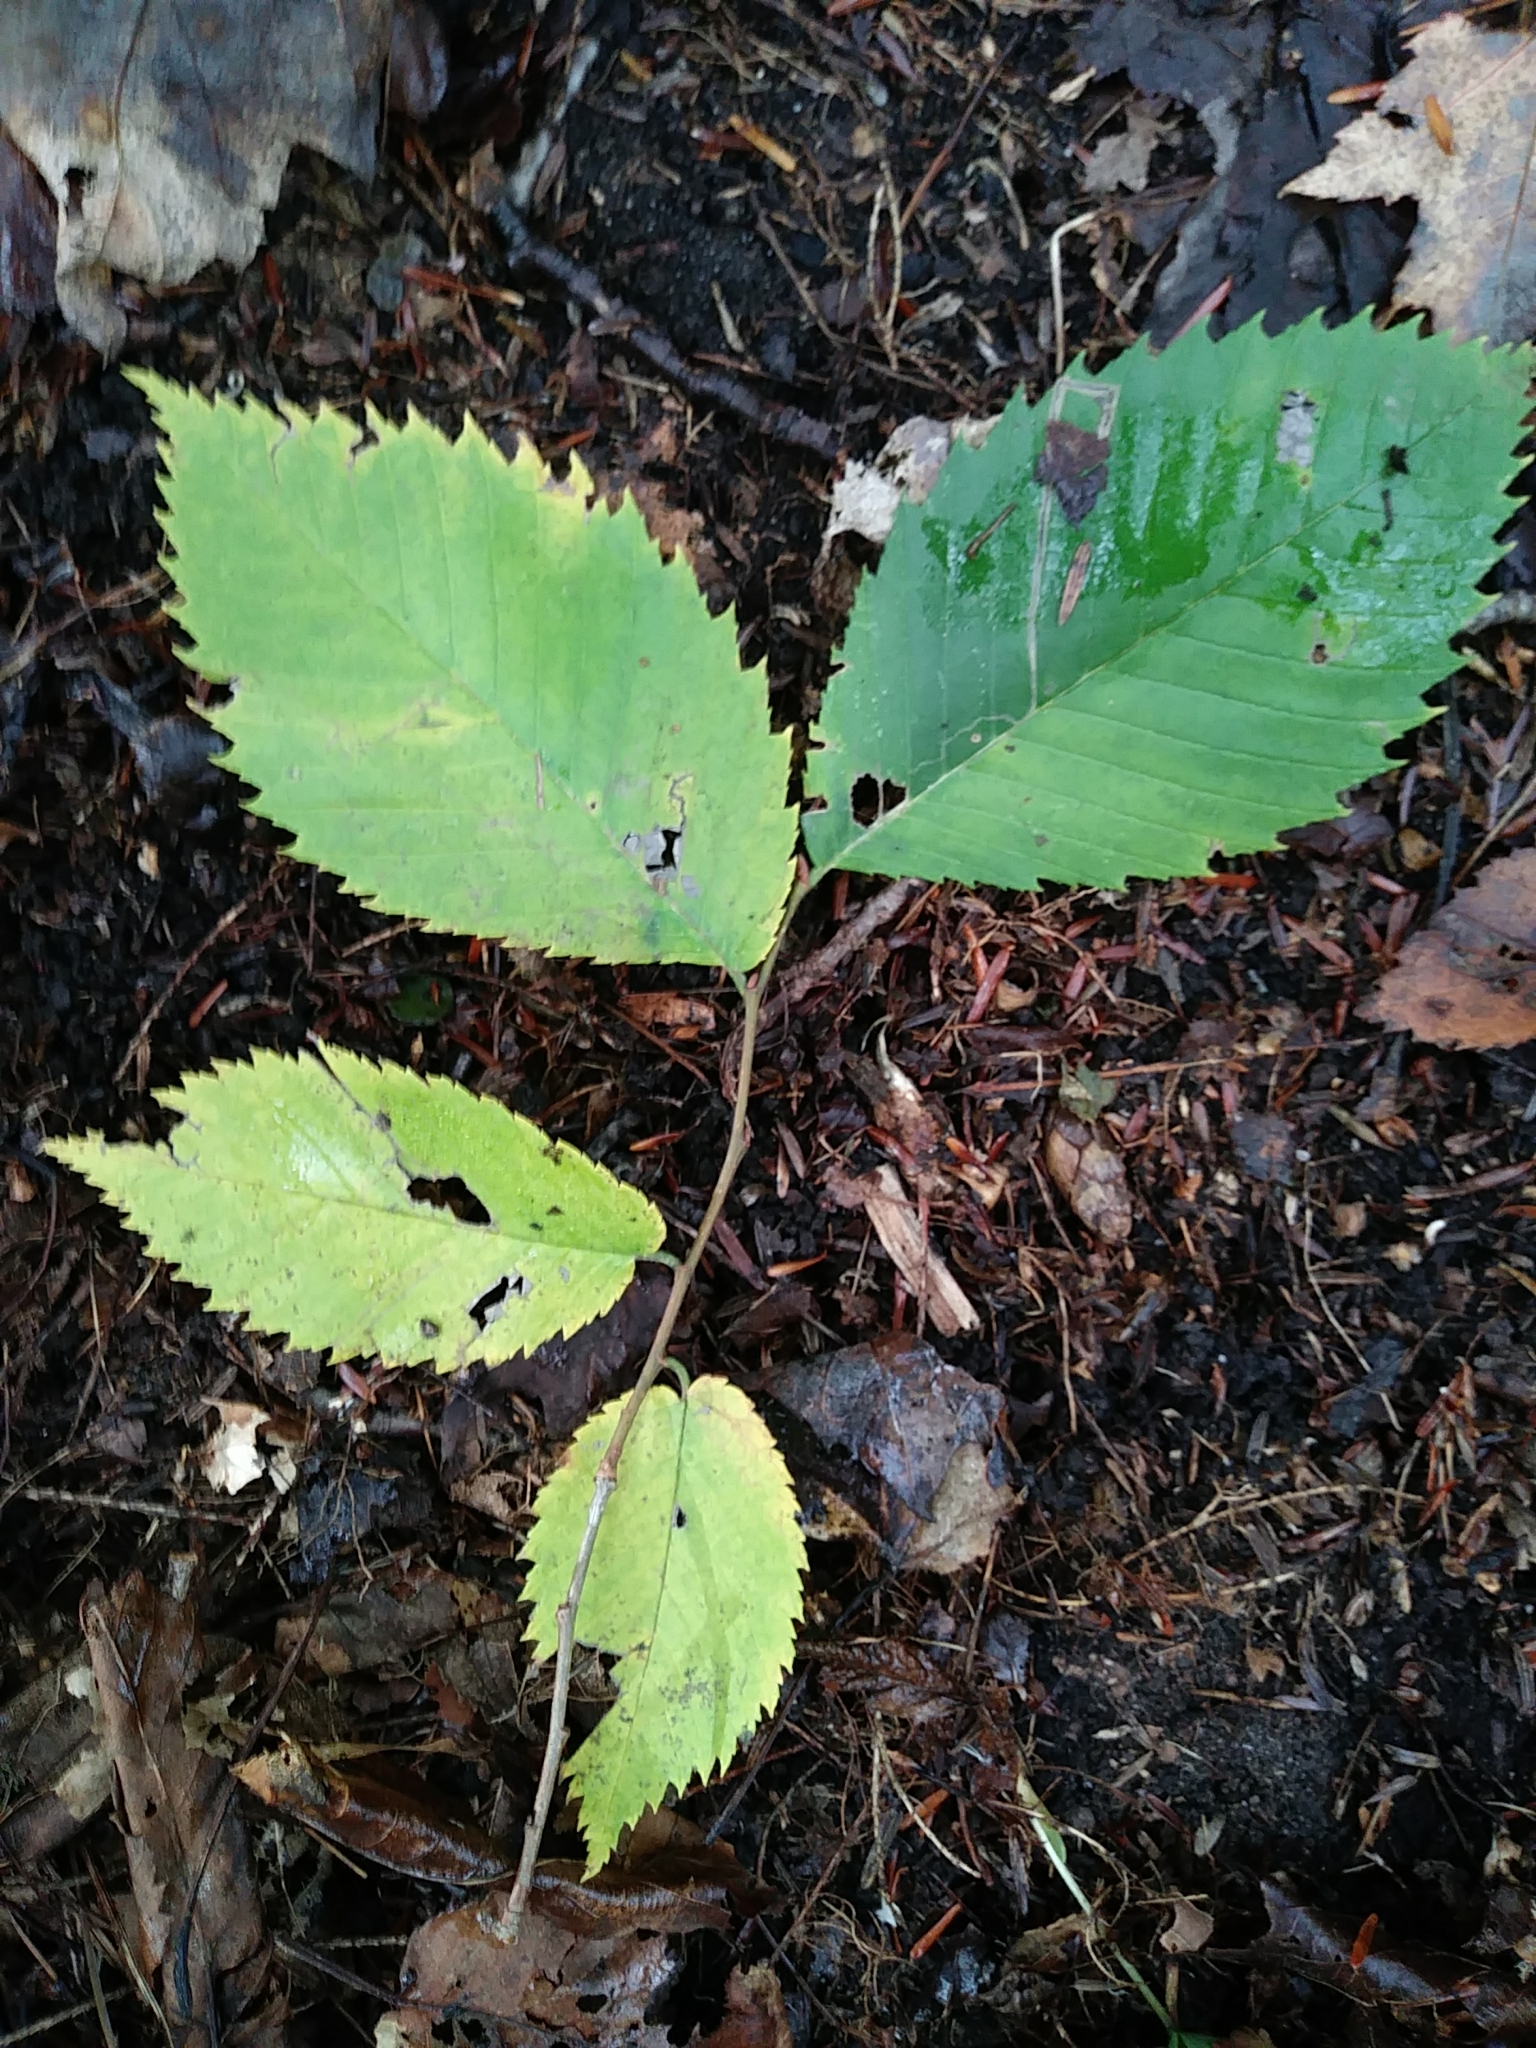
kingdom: Plantae
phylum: Tracheophyta
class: Magnoliopsida
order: Rosales
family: Ulmaceae
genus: Ulmus
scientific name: Ulmus americana
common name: American elm
